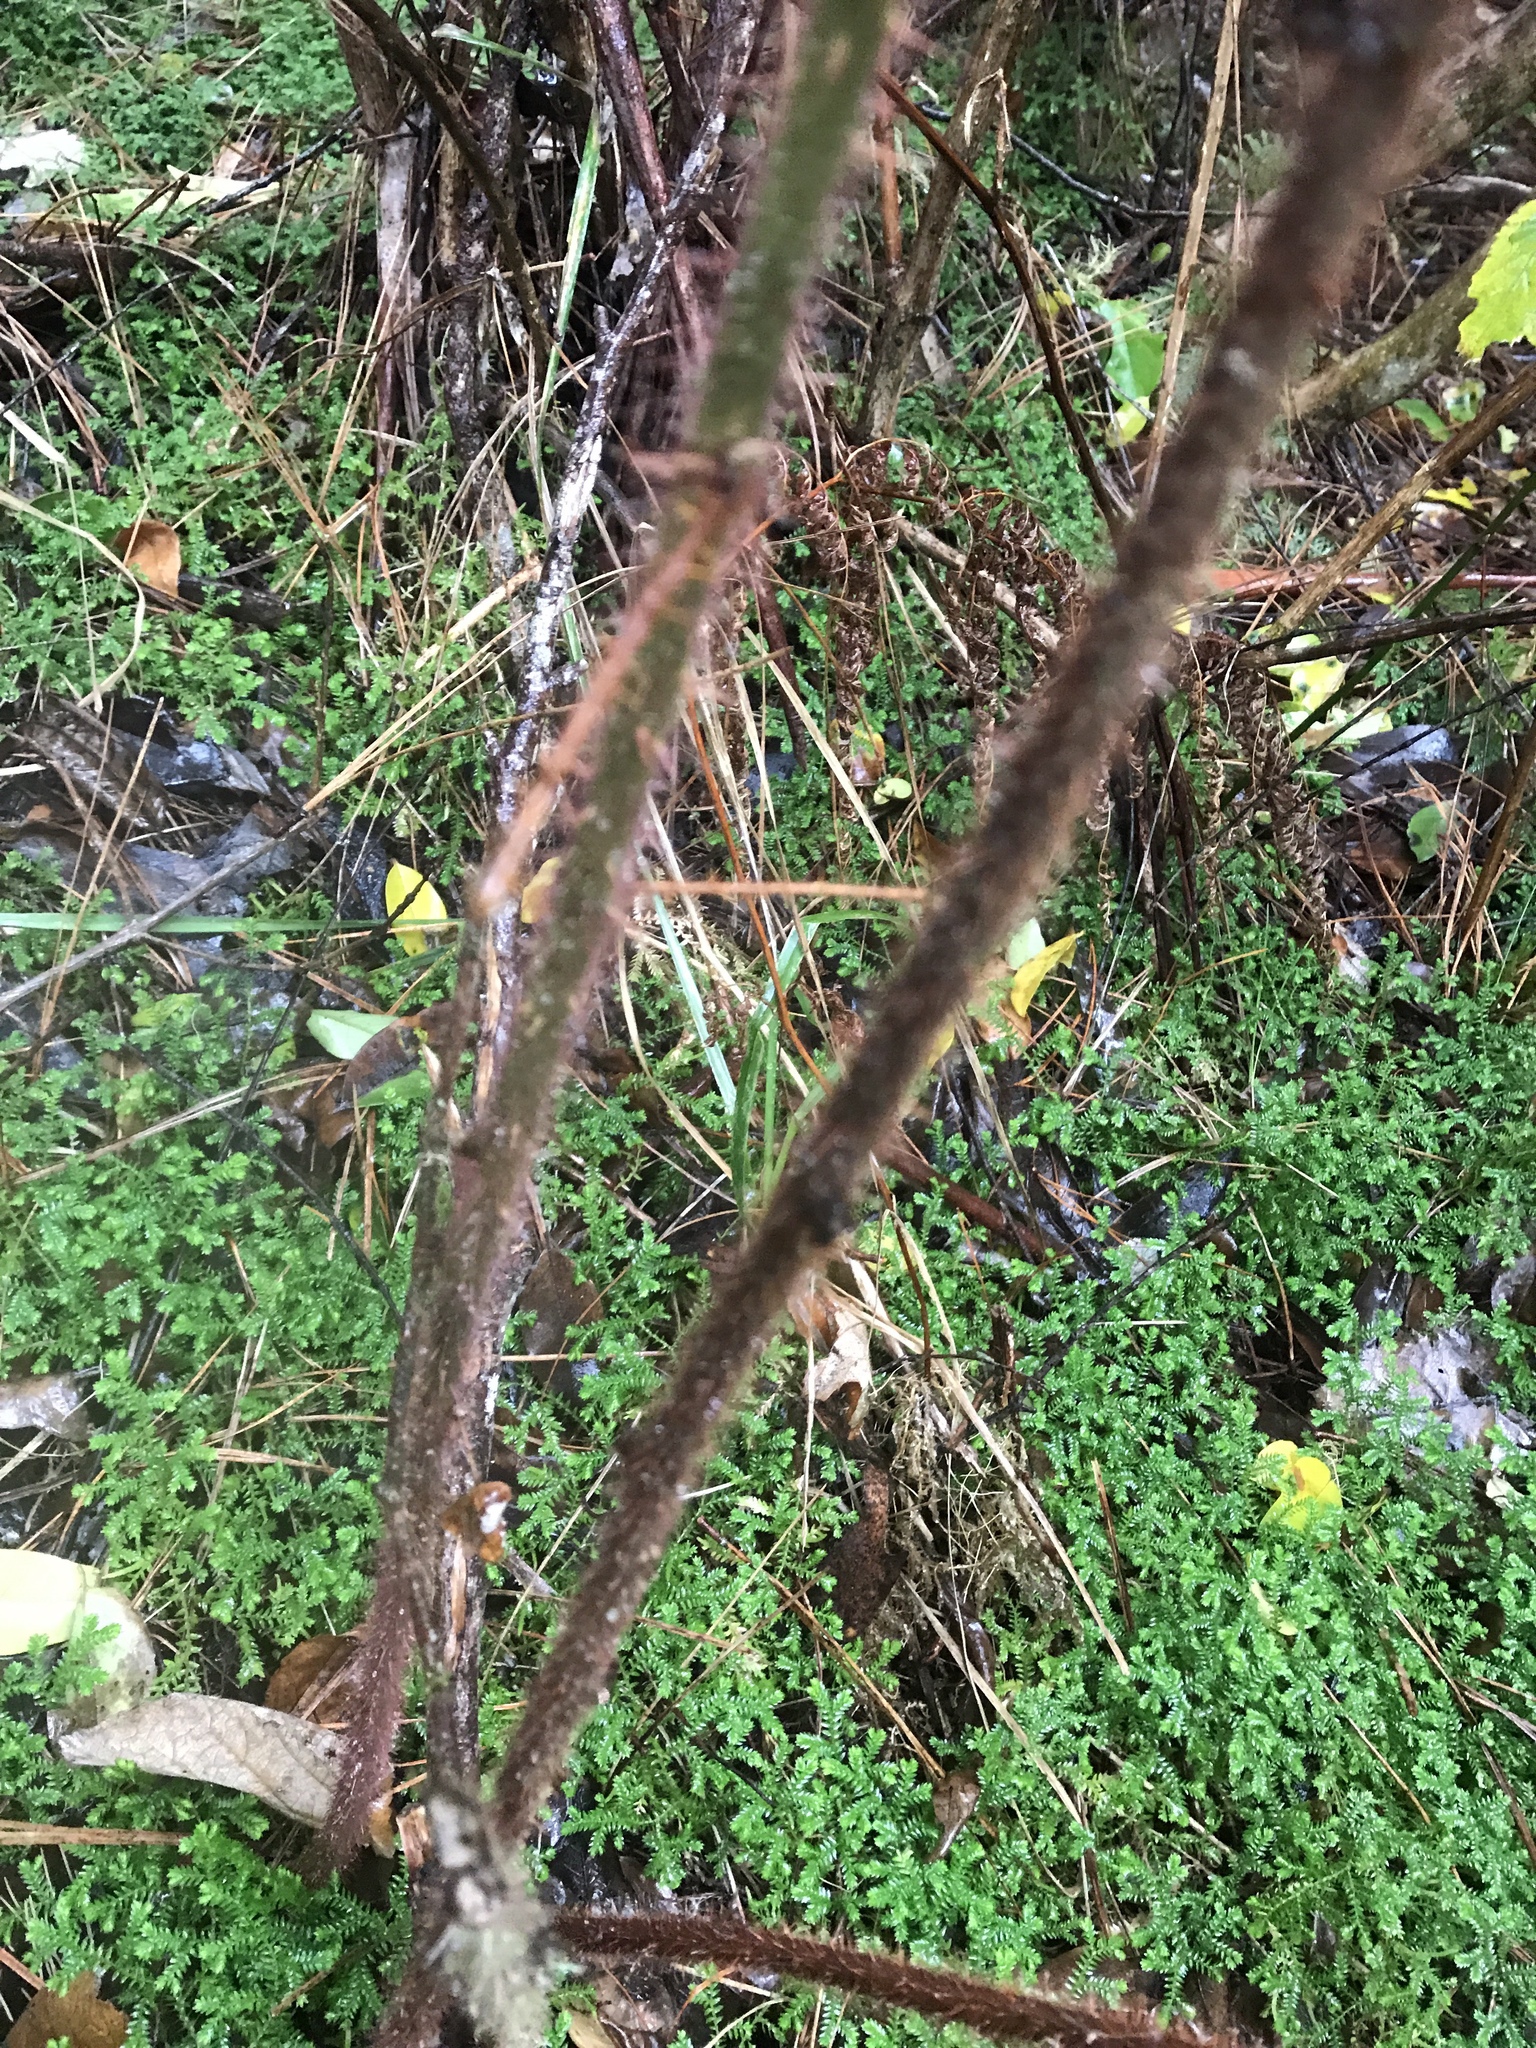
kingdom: Plantae
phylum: Tracheophyta
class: Magnoliopsida
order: Rosales
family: Rosaceae
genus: Rubus
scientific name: Rubus phoenicolasius
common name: Japanese wineberry
